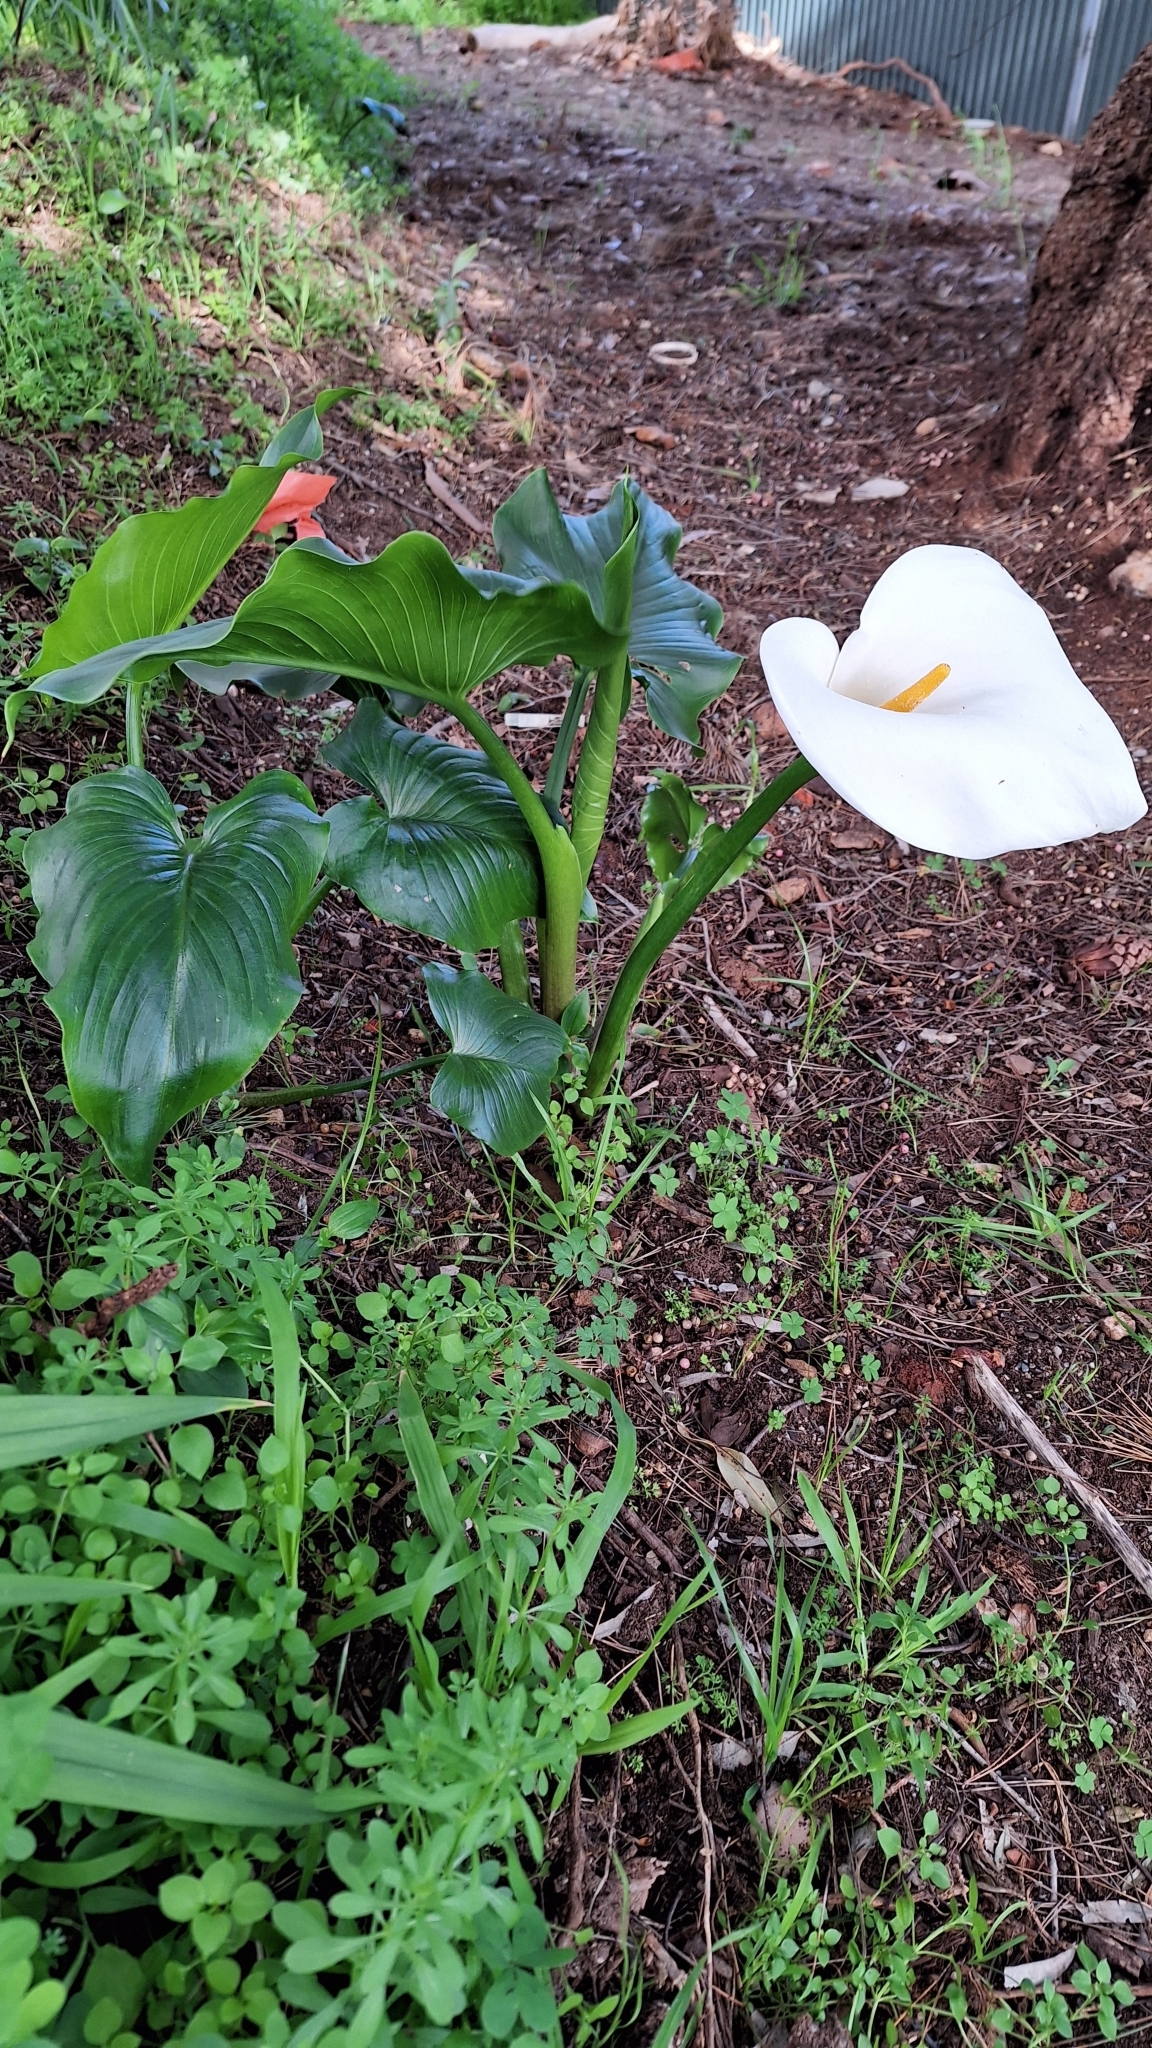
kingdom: Plantae
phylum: Tracheophyta
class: Liliopsida
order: Alismatales
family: Araceae
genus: Zantedeschia
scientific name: Zantedeschia aethiopica
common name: Altar-lily
